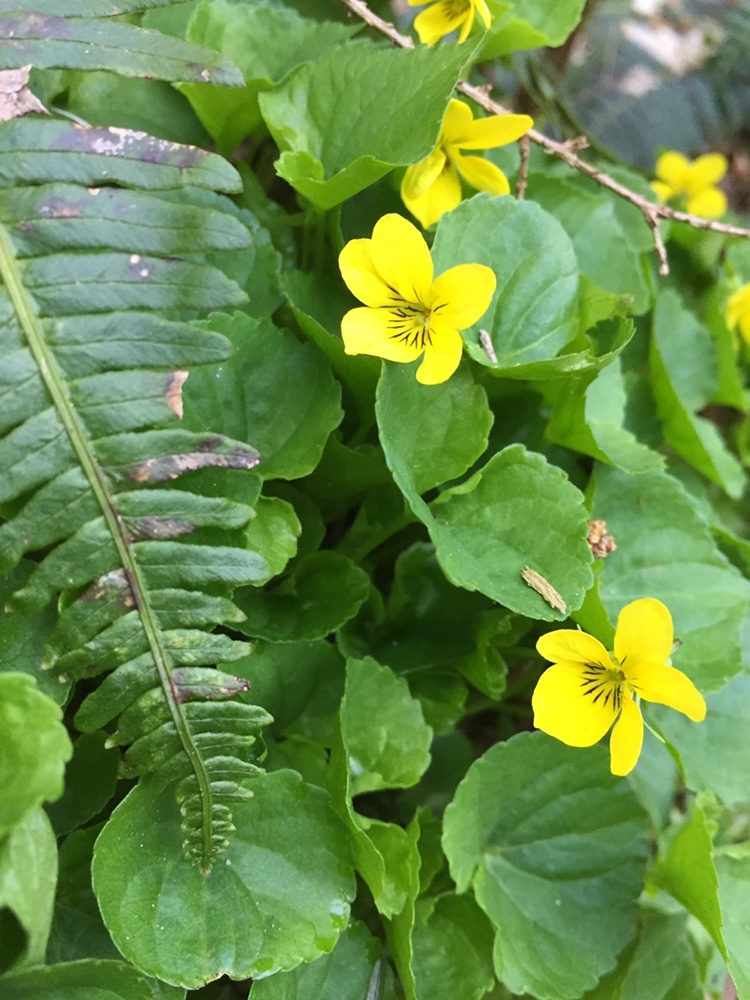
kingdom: Plantae
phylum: Tracheophyta
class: Magnoliopsida
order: Malpighiales
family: Violaceae
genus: Viola
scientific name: Viola glabella
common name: Stream violet
